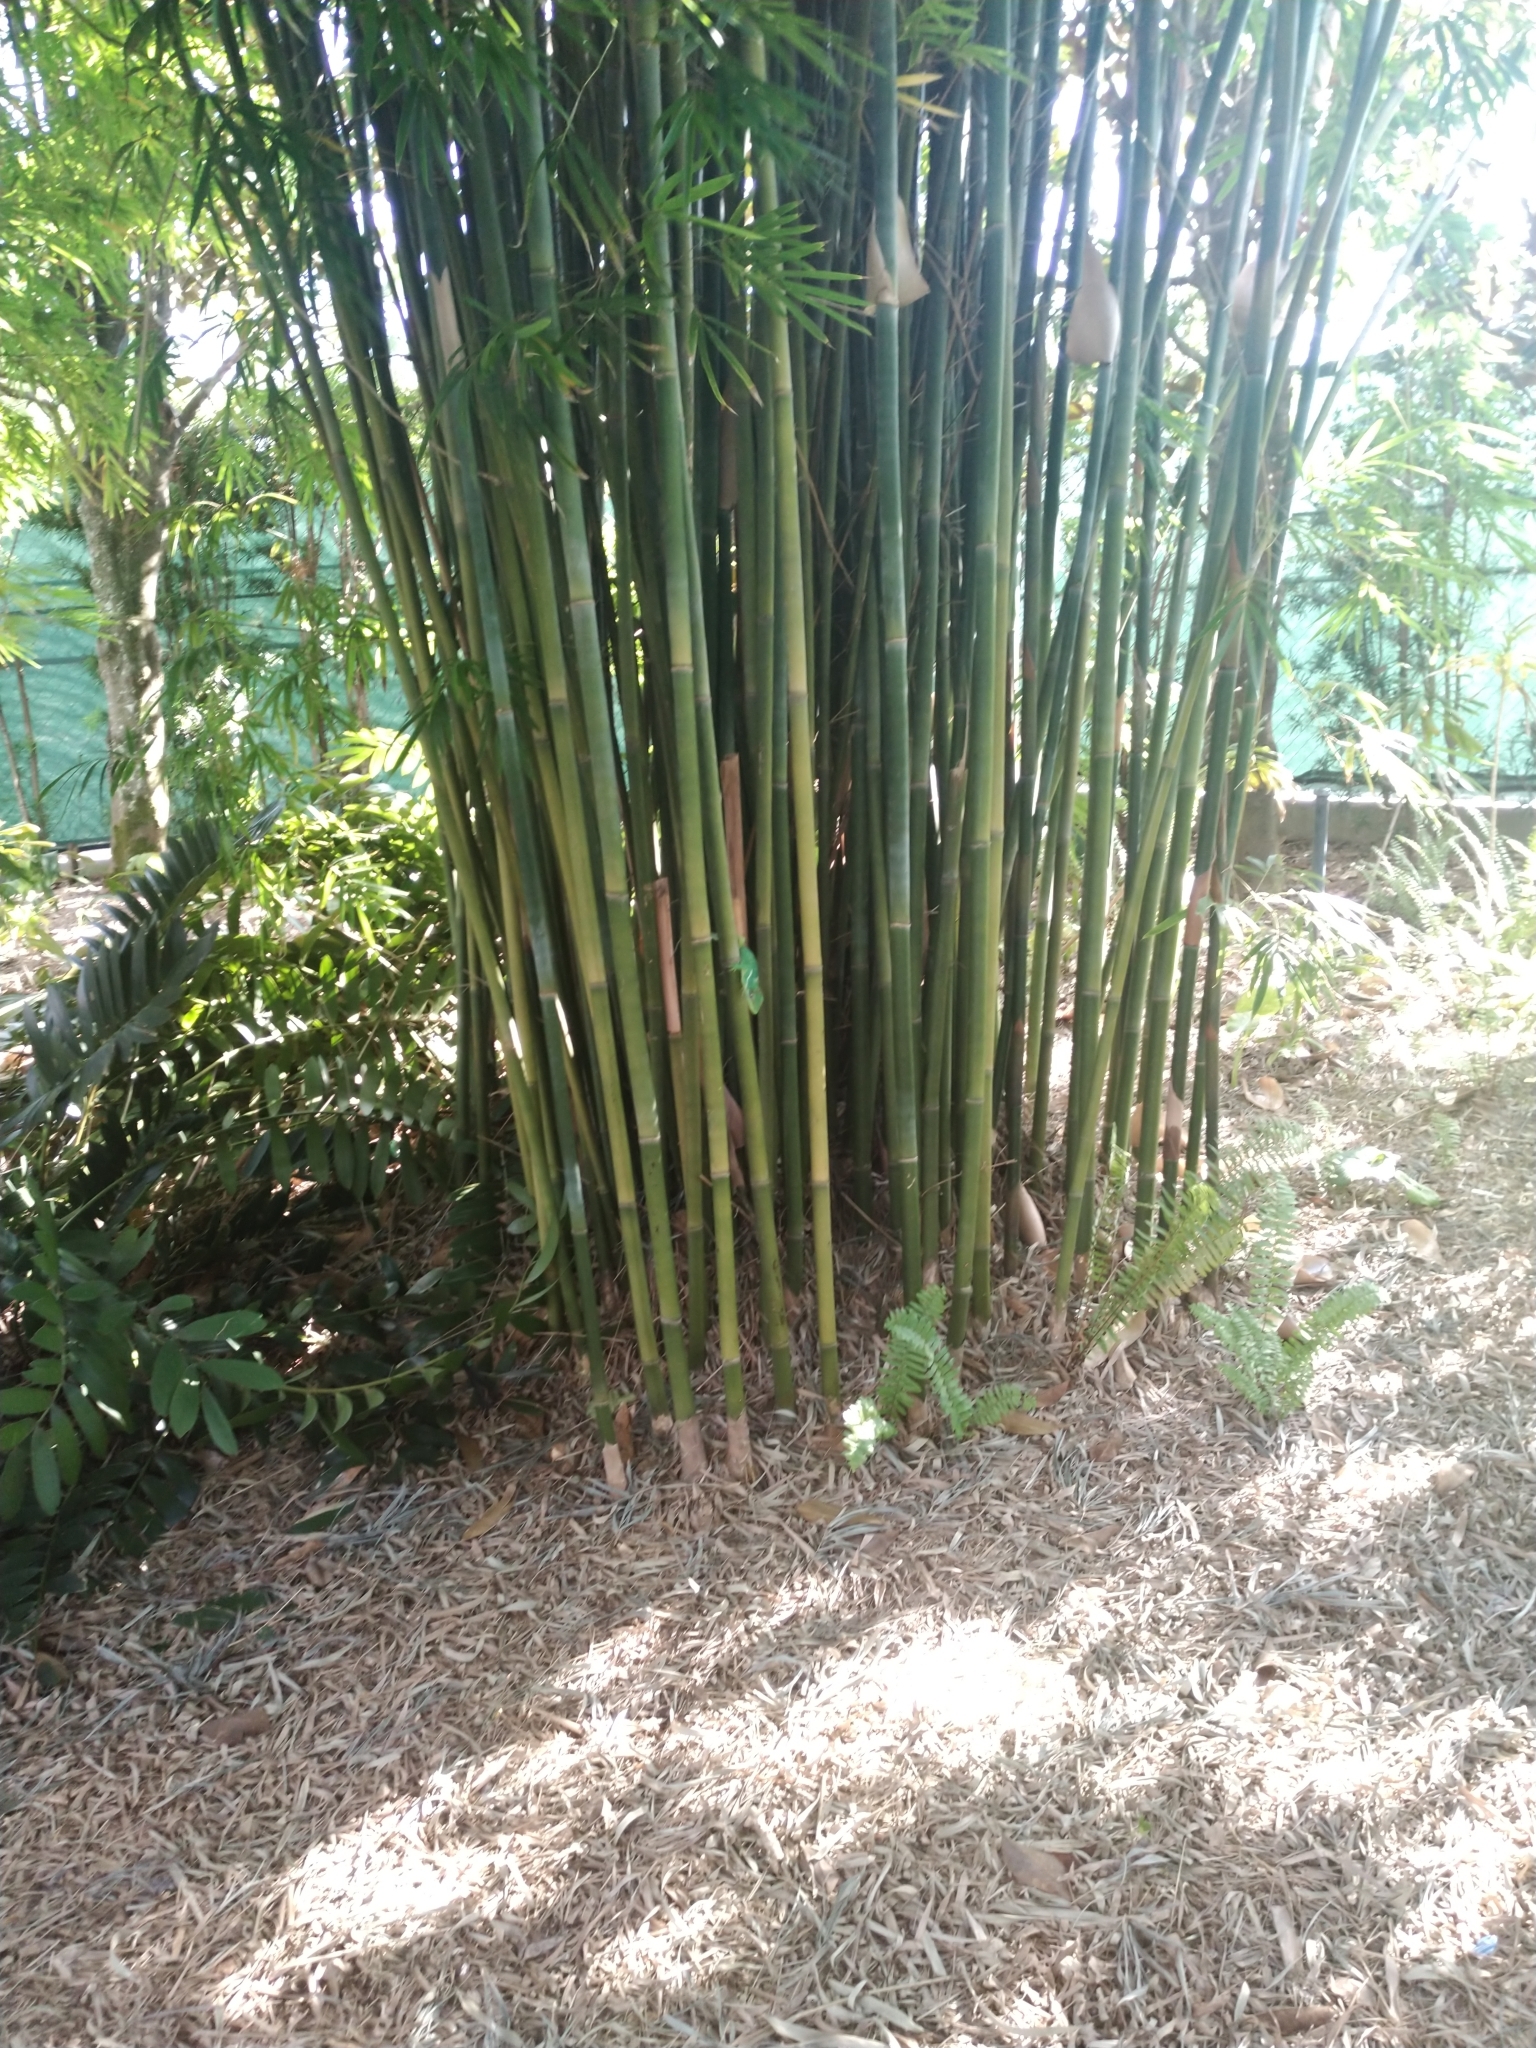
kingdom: Animalia
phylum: Chordata
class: Squamata
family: Dactyloidae
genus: Anolis
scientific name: Anolis equestris
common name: Knight anole
